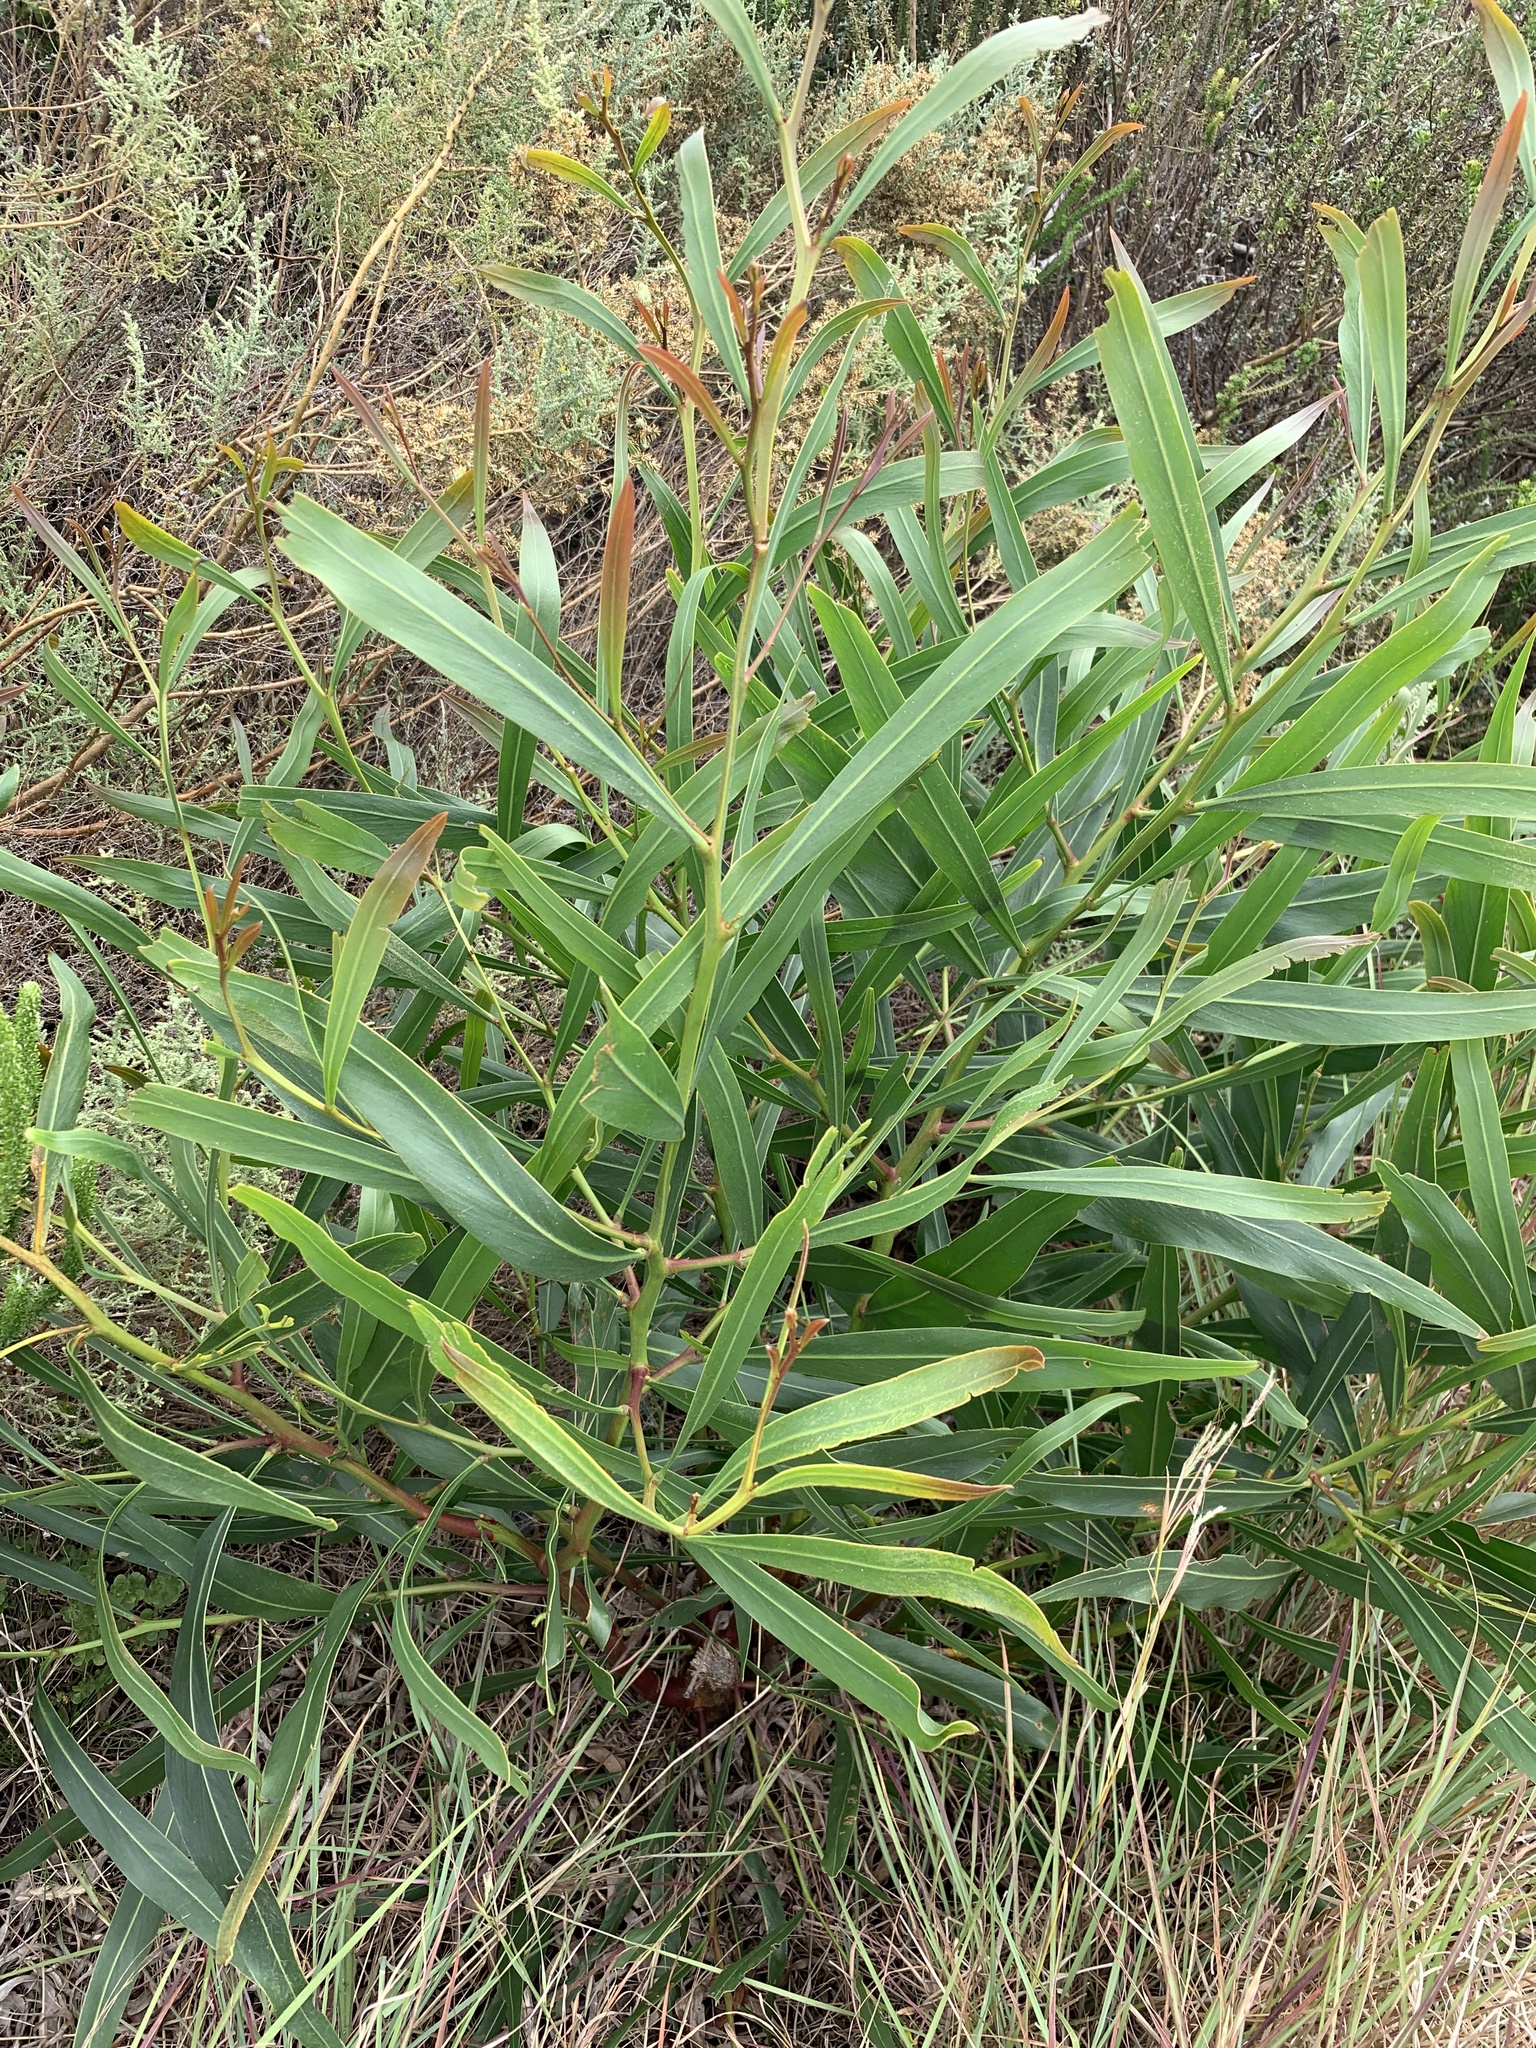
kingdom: Plantae
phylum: Tracheophyta
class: Magnoliopsida
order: Fabales
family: Fabaceae
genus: Acacia
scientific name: Acacia saligna
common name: Orange wattle
